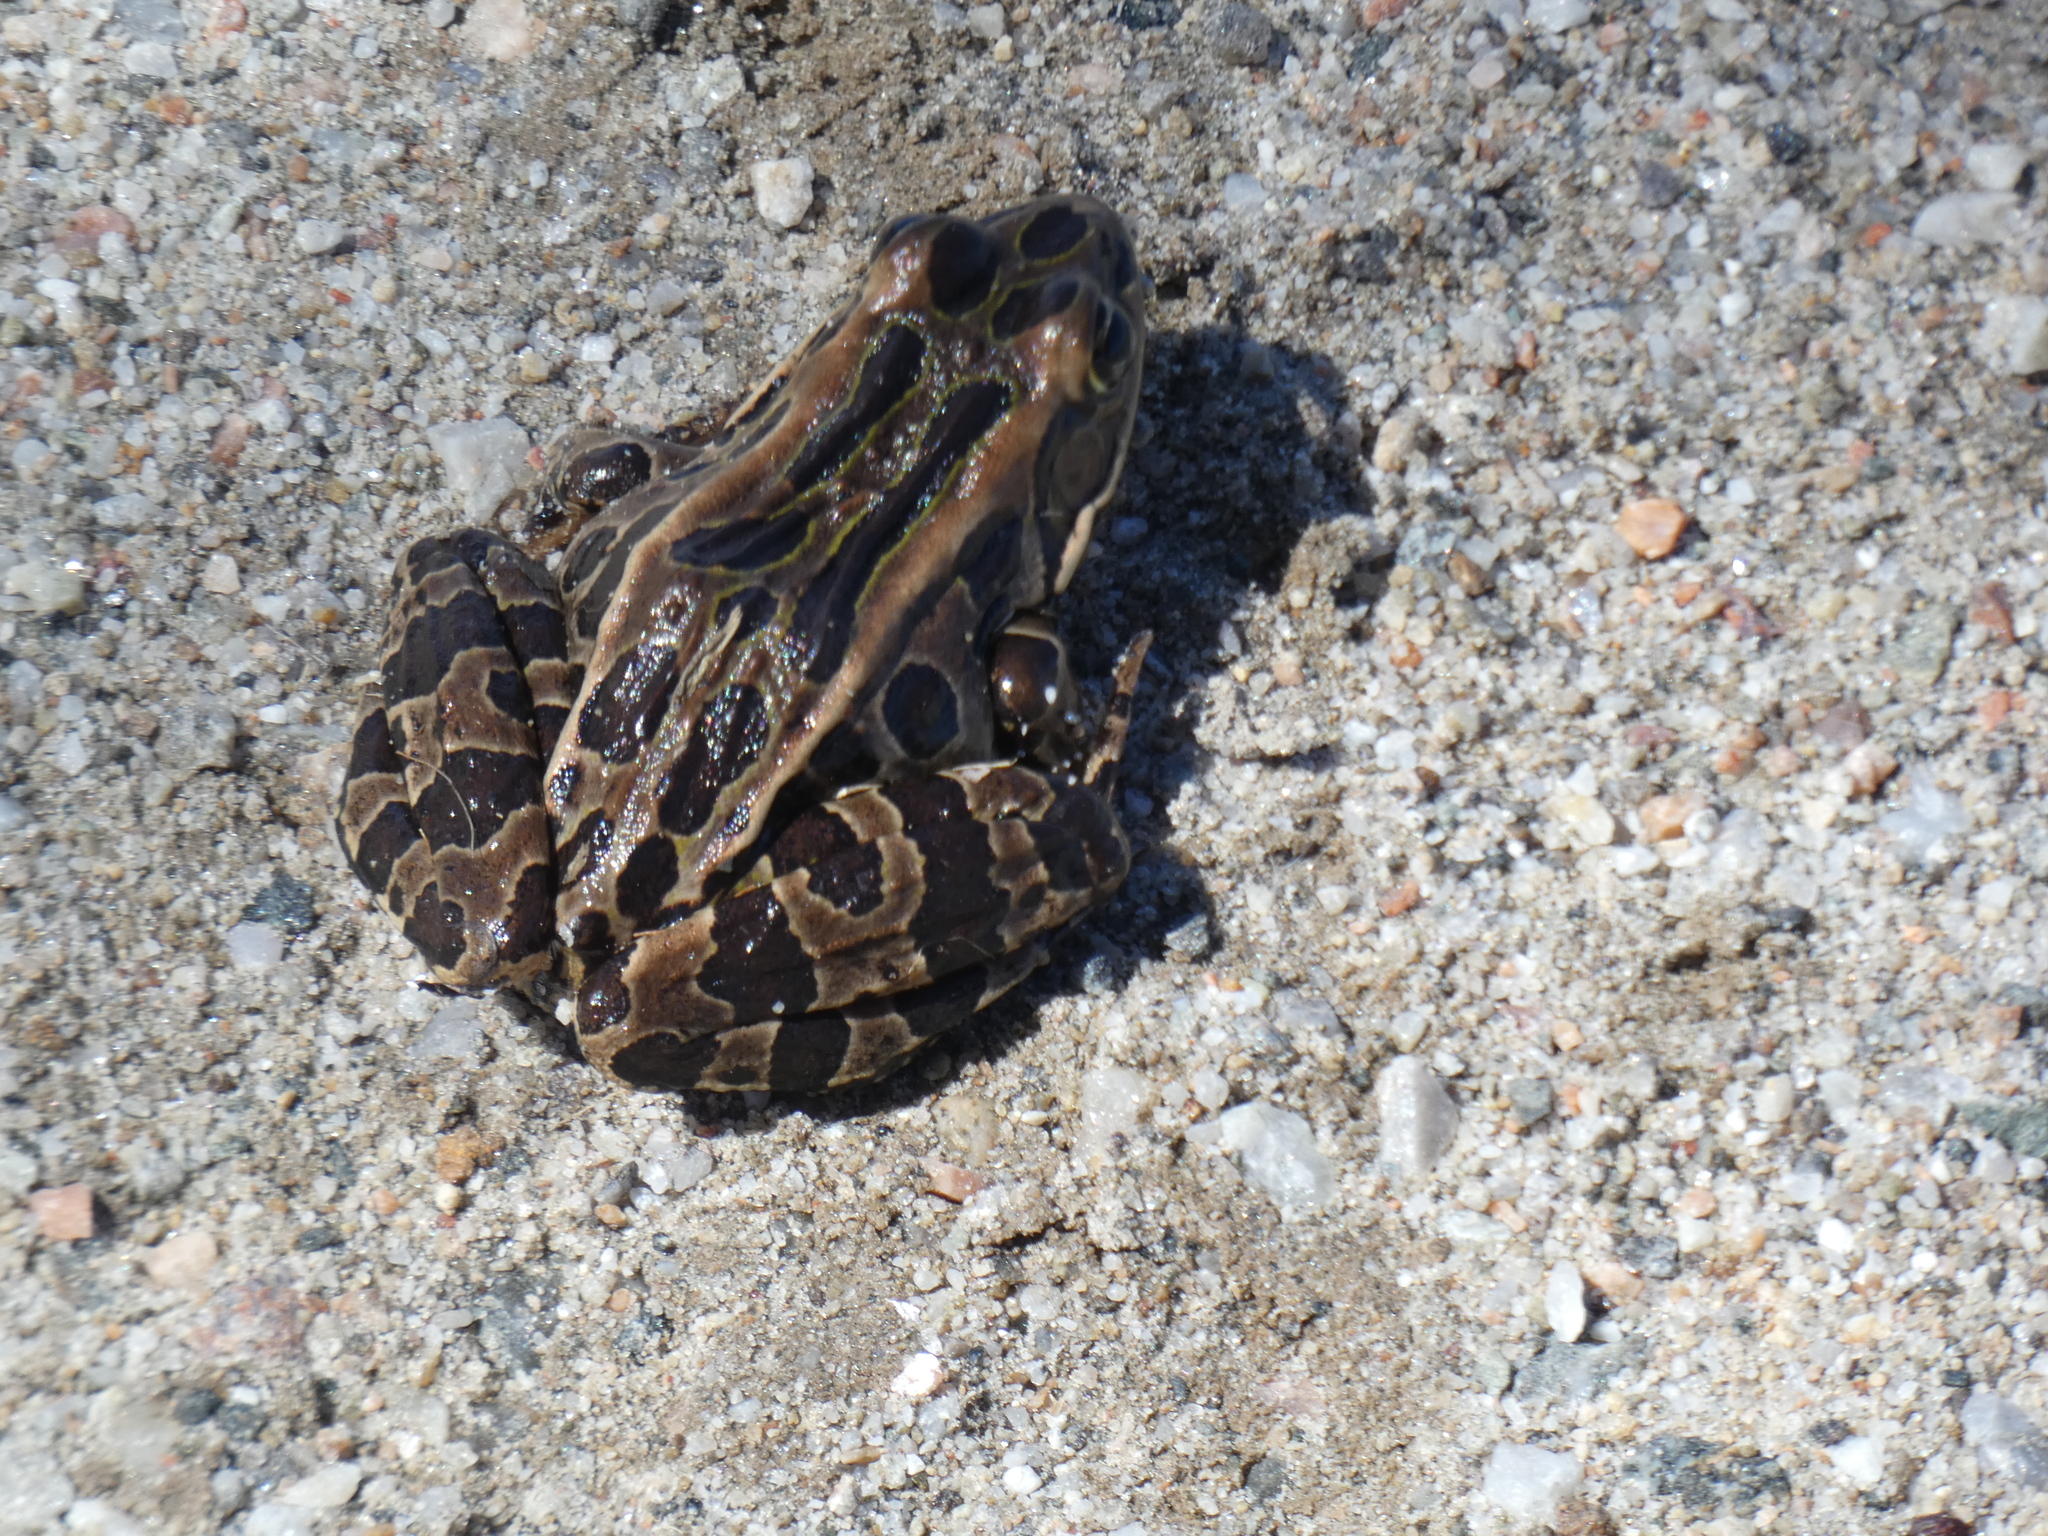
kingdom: Animalia
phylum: Chordata
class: Amphibia
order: Anura
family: Ranidae
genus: Lithobates
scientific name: Lithobates pipiens
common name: Northern leopard frog
